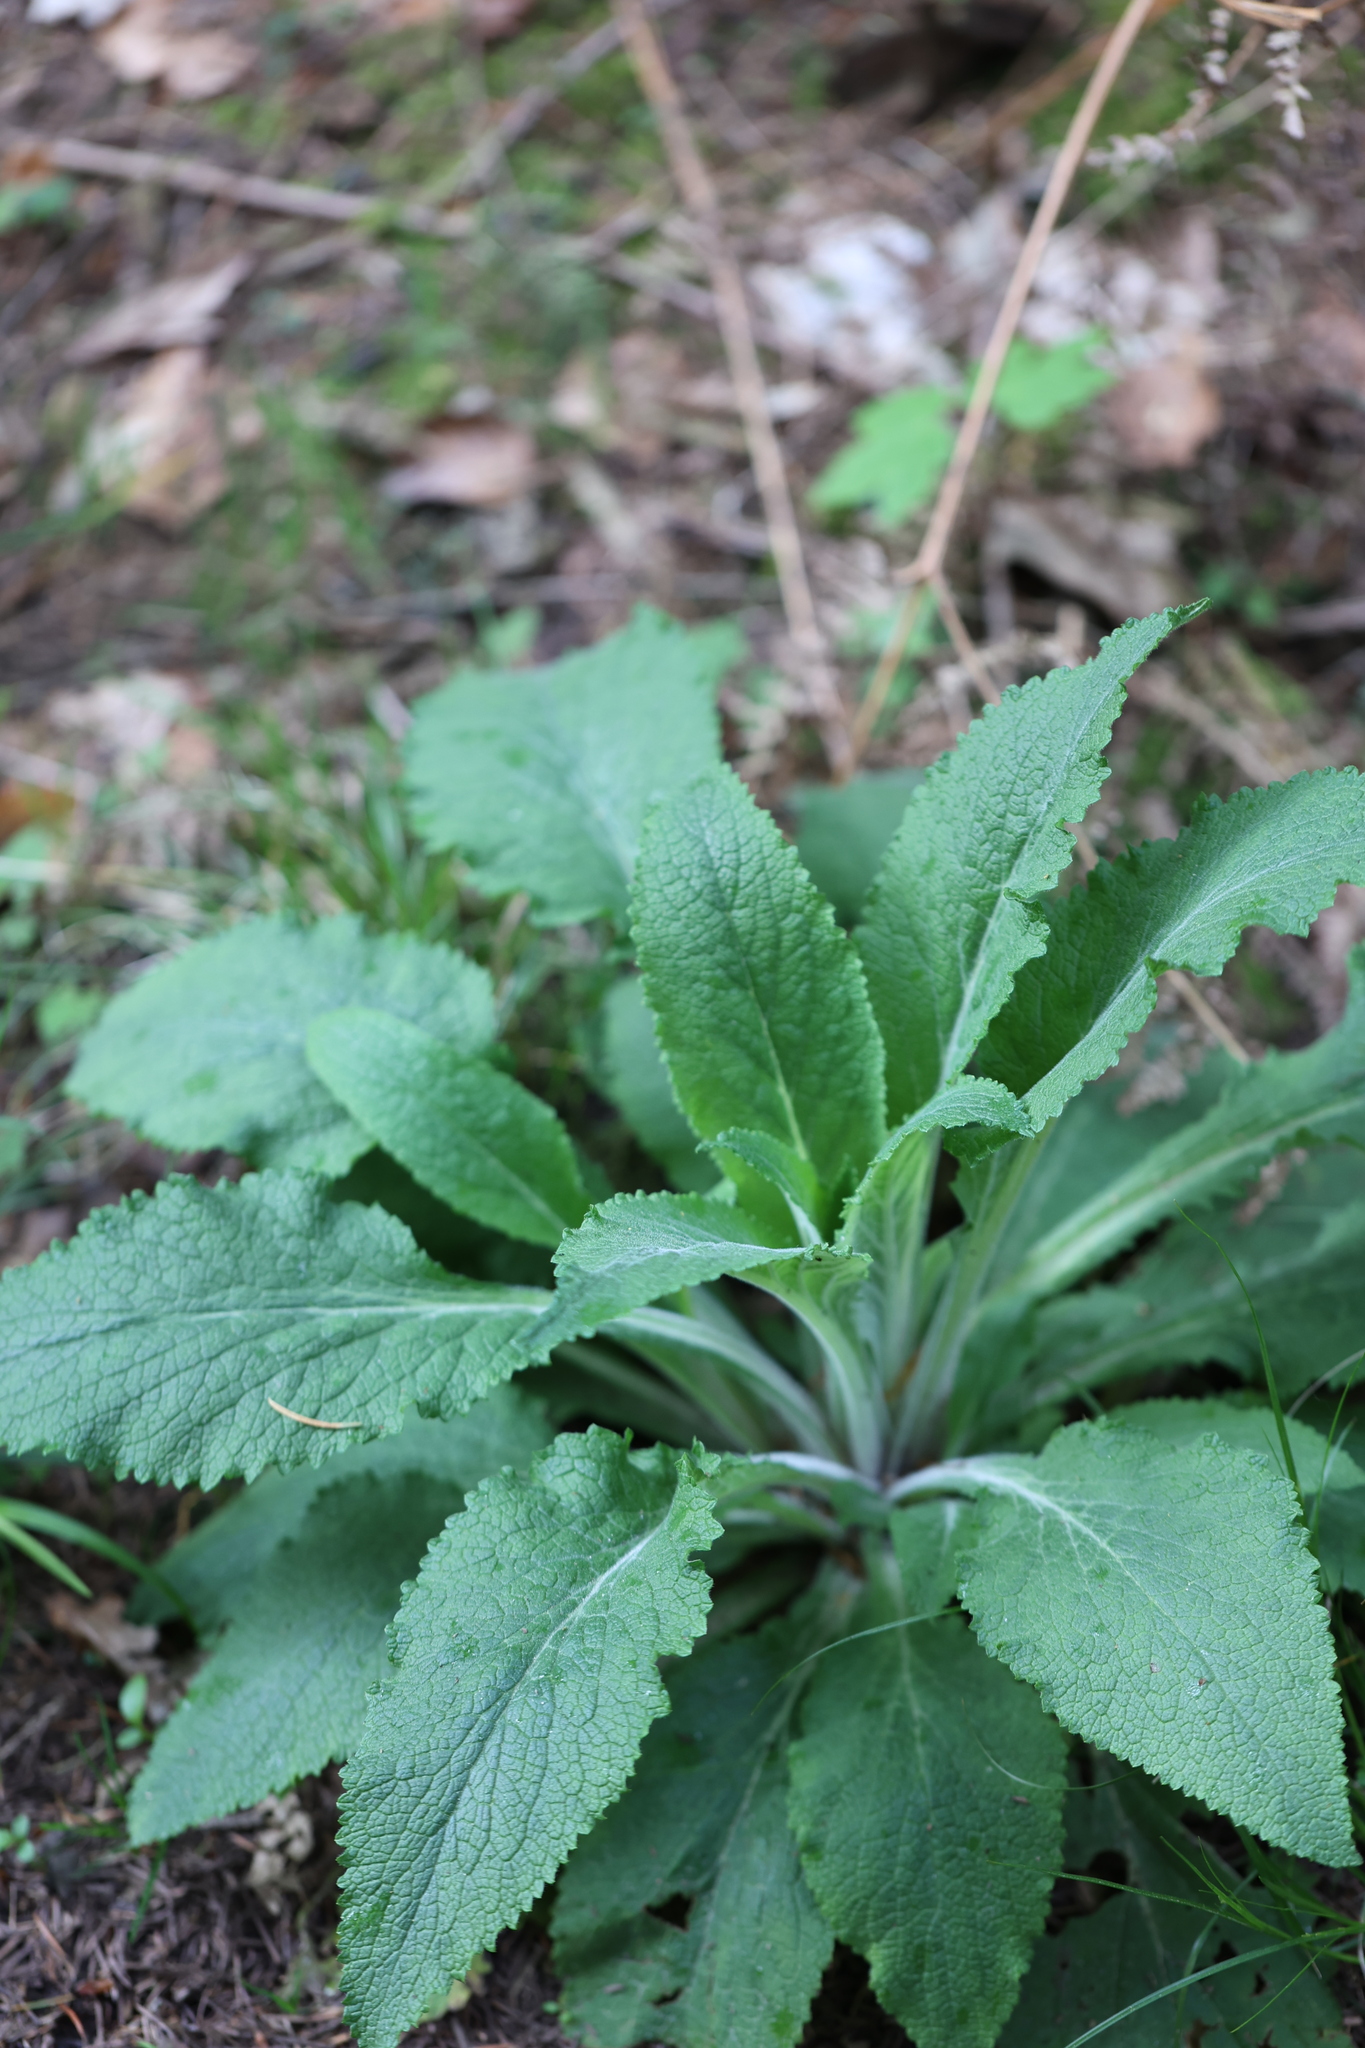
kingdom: Plantae
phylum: Tracheophyta
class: Magnoliopsida
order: Lamiales
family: Plantaginaceae
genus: Digitalis
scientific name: Digitalis purpurea
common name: Foxglove
